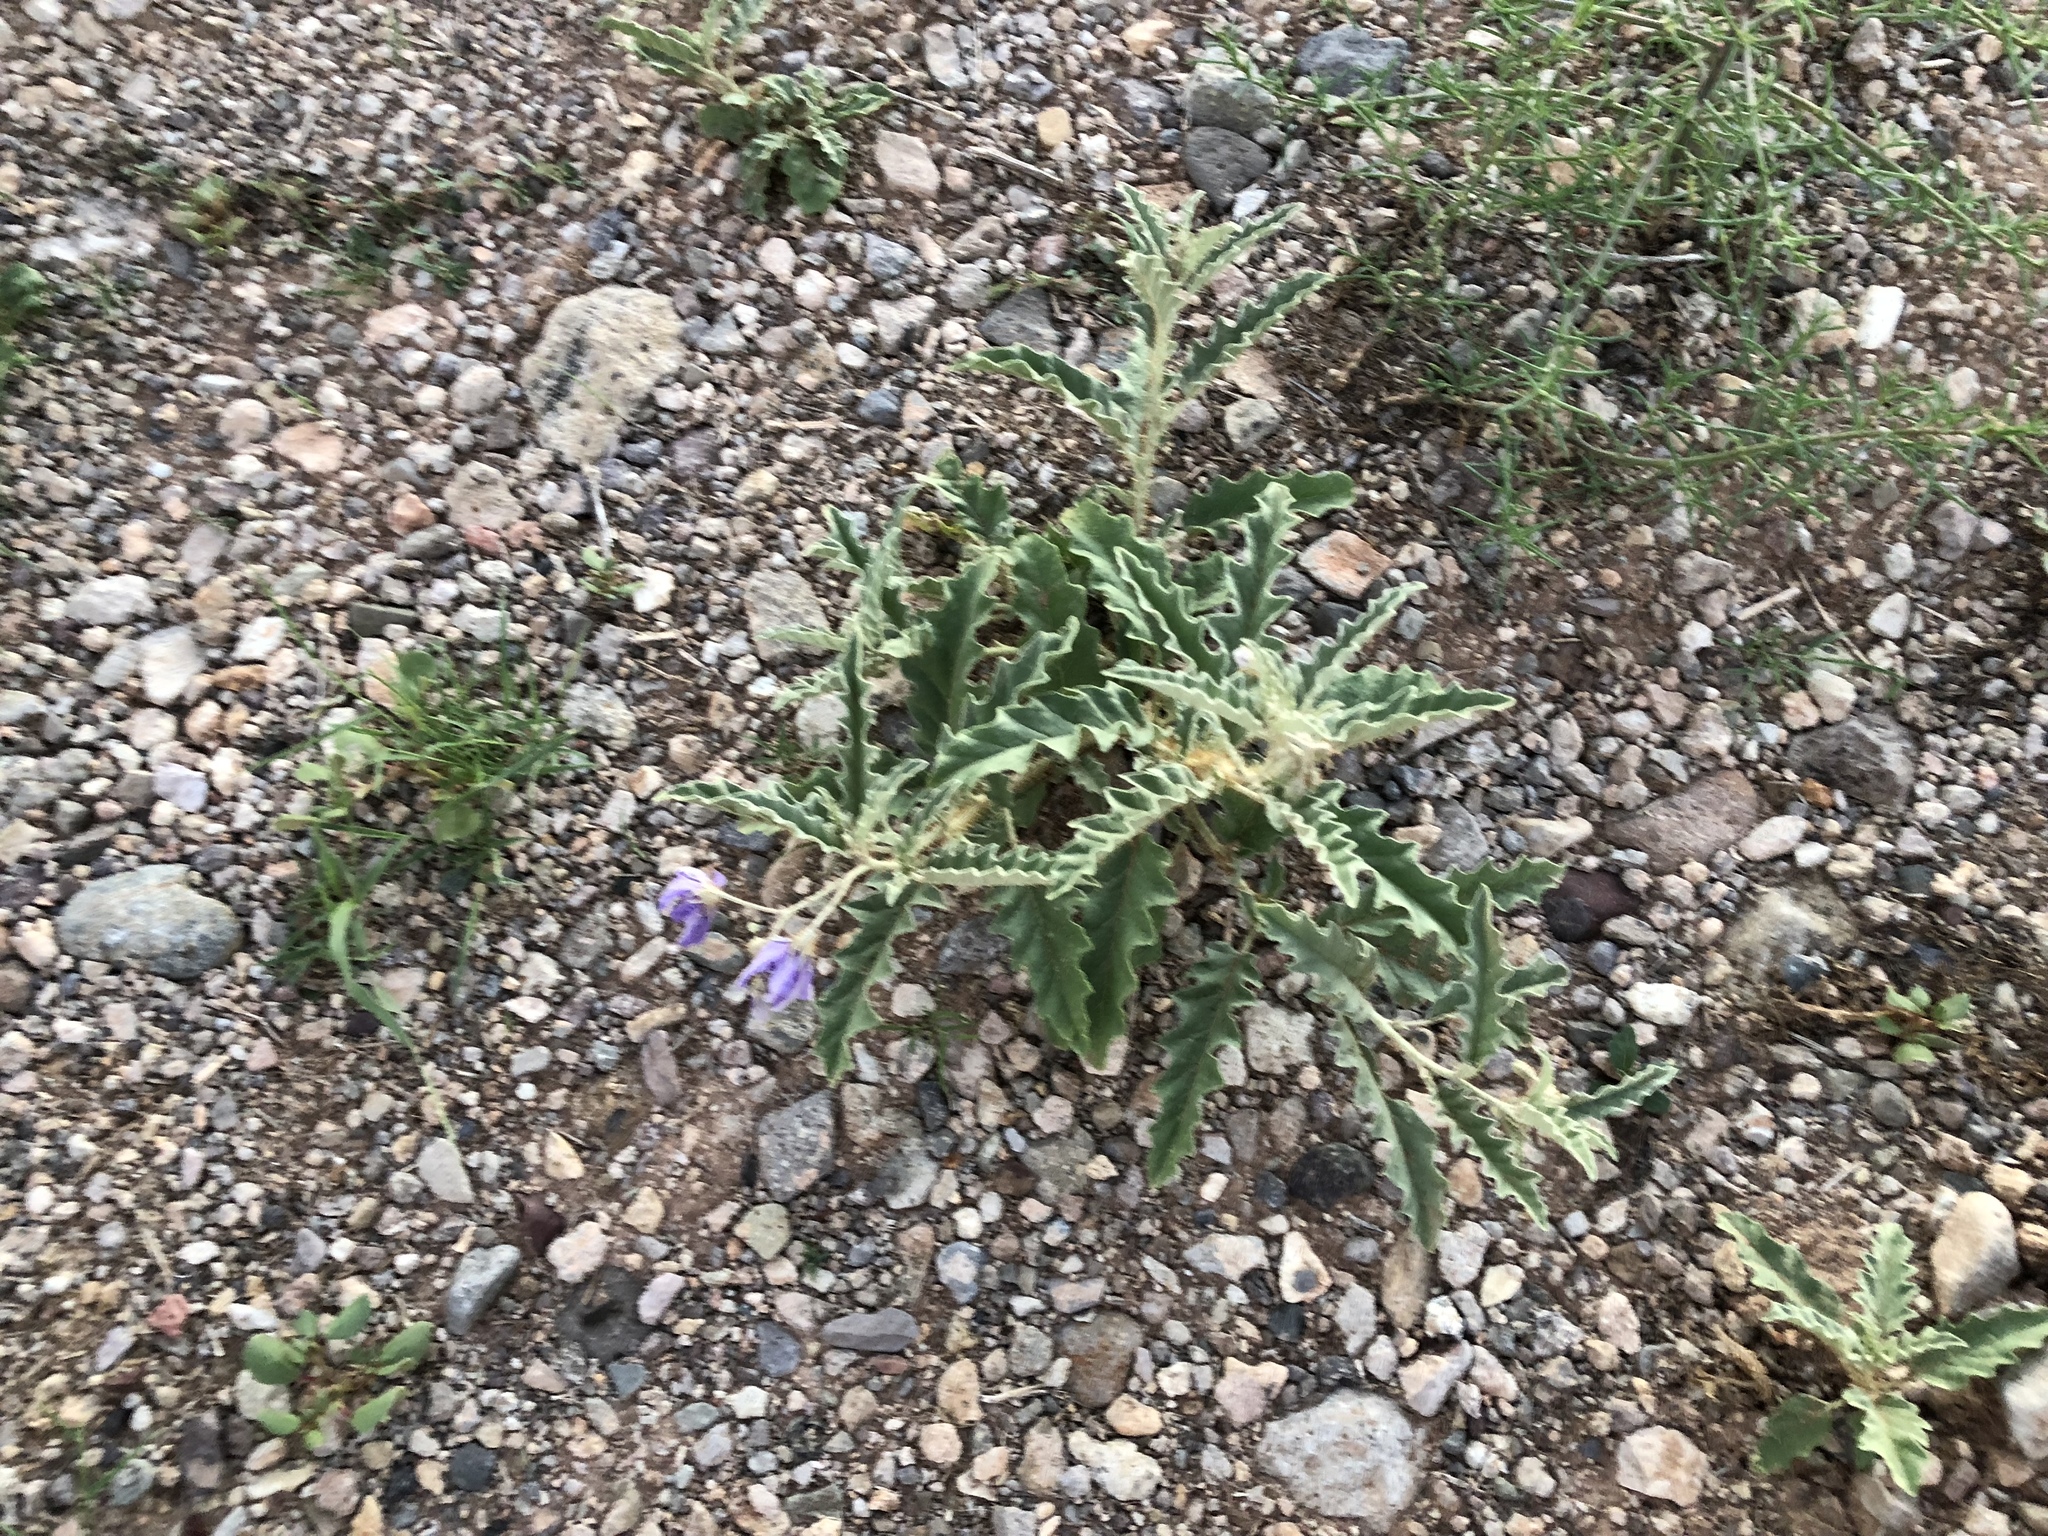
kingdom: Plantae
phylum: Tracheophyta
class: Magnoliopsida
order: Solanales
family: Solanaceae
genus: Solanum
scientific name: Solanum elaeagnifolium
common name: Silverleaf nightshade
